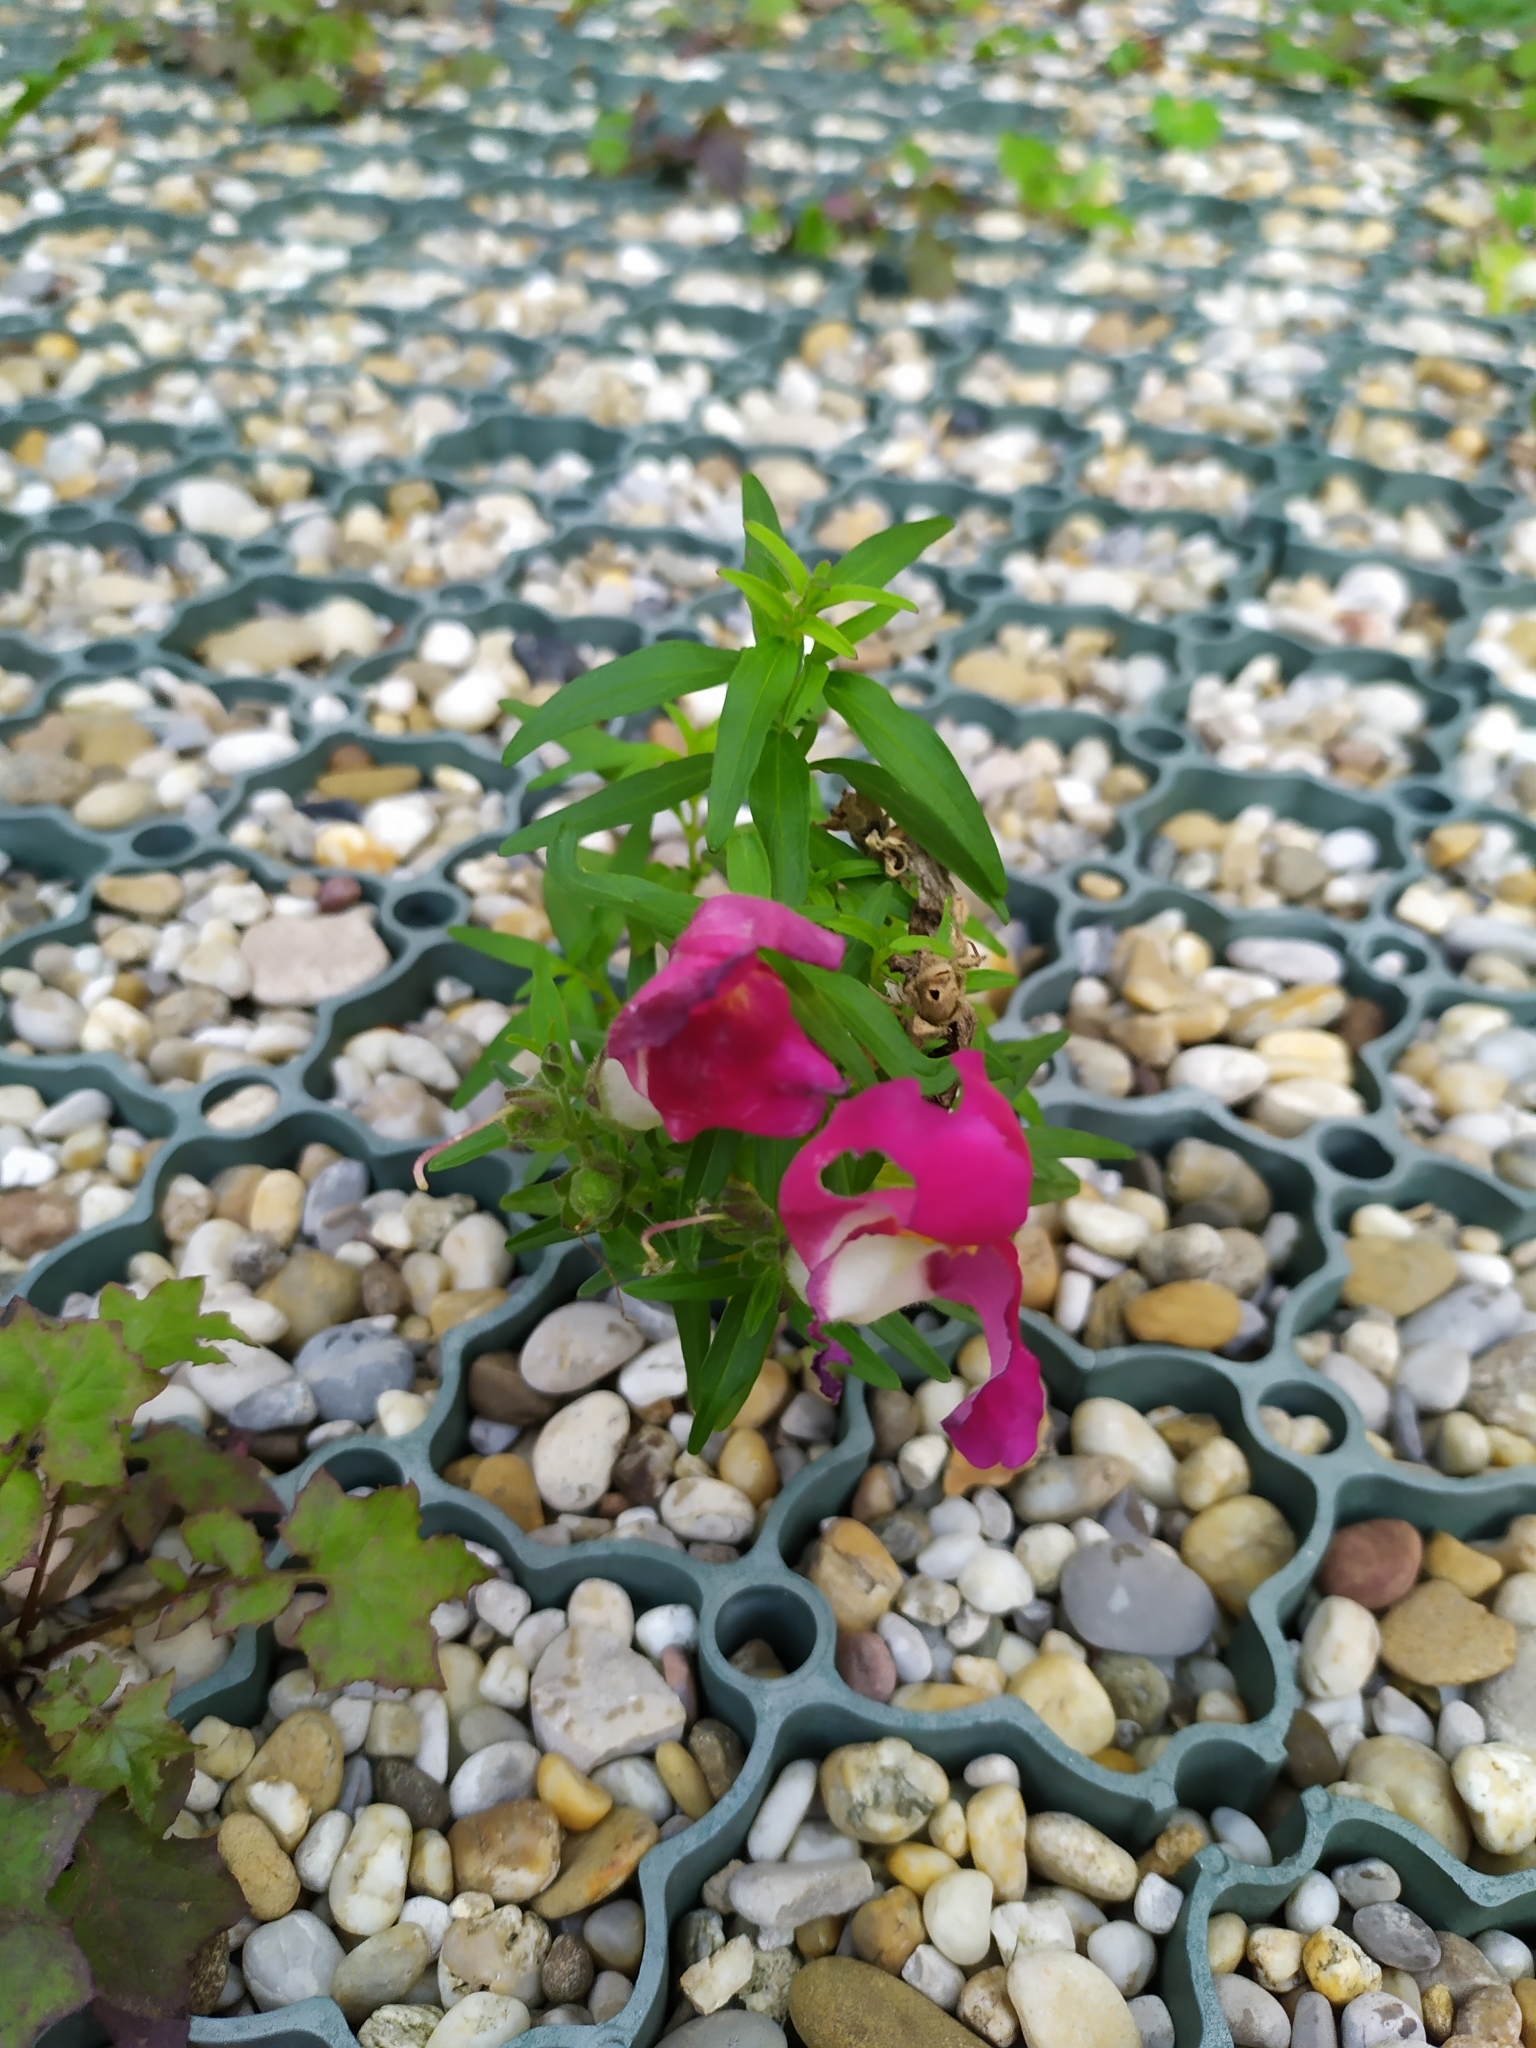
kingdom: Plantae
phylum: Tracheophyta
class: Magnoliopsida
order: Lamiales
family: Plantaginaceae
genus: Antirrhinum
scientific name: Antirrhinum majus
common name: Snapdragon
